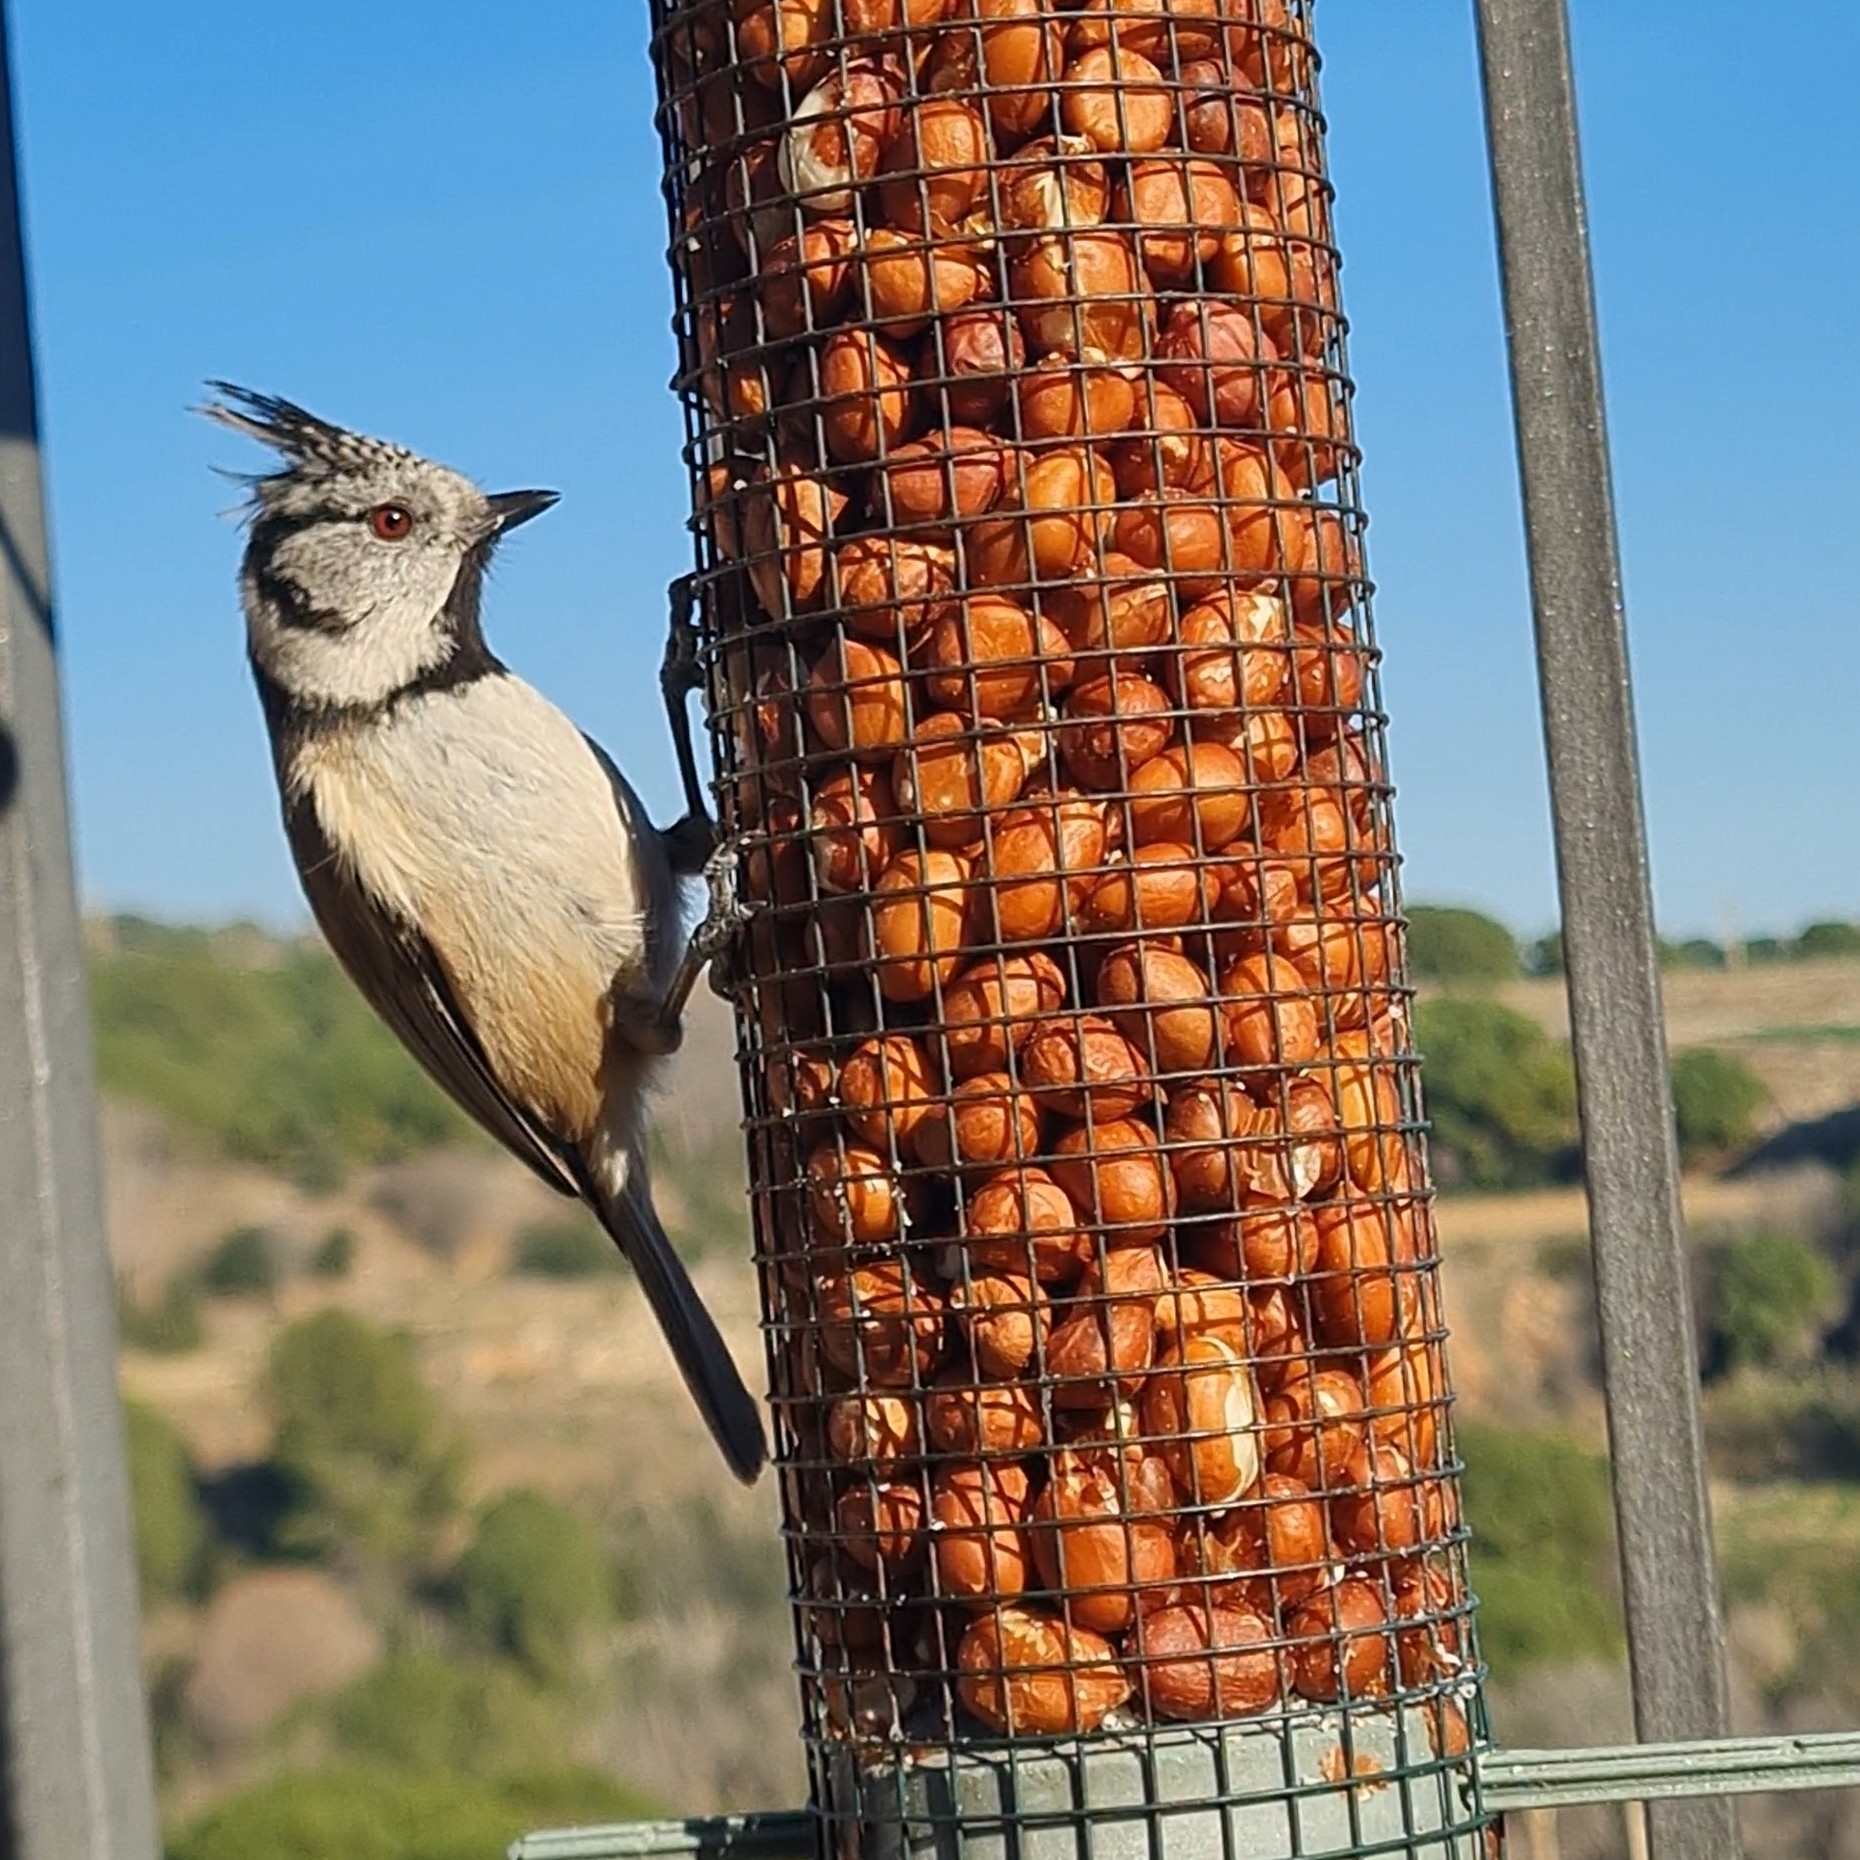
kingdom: Animalia
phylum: Chordata
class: Aves
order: Passeriformes
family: Paridae
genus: Lophophanes
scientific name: Lophophanes cristatus
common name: European crested tit
